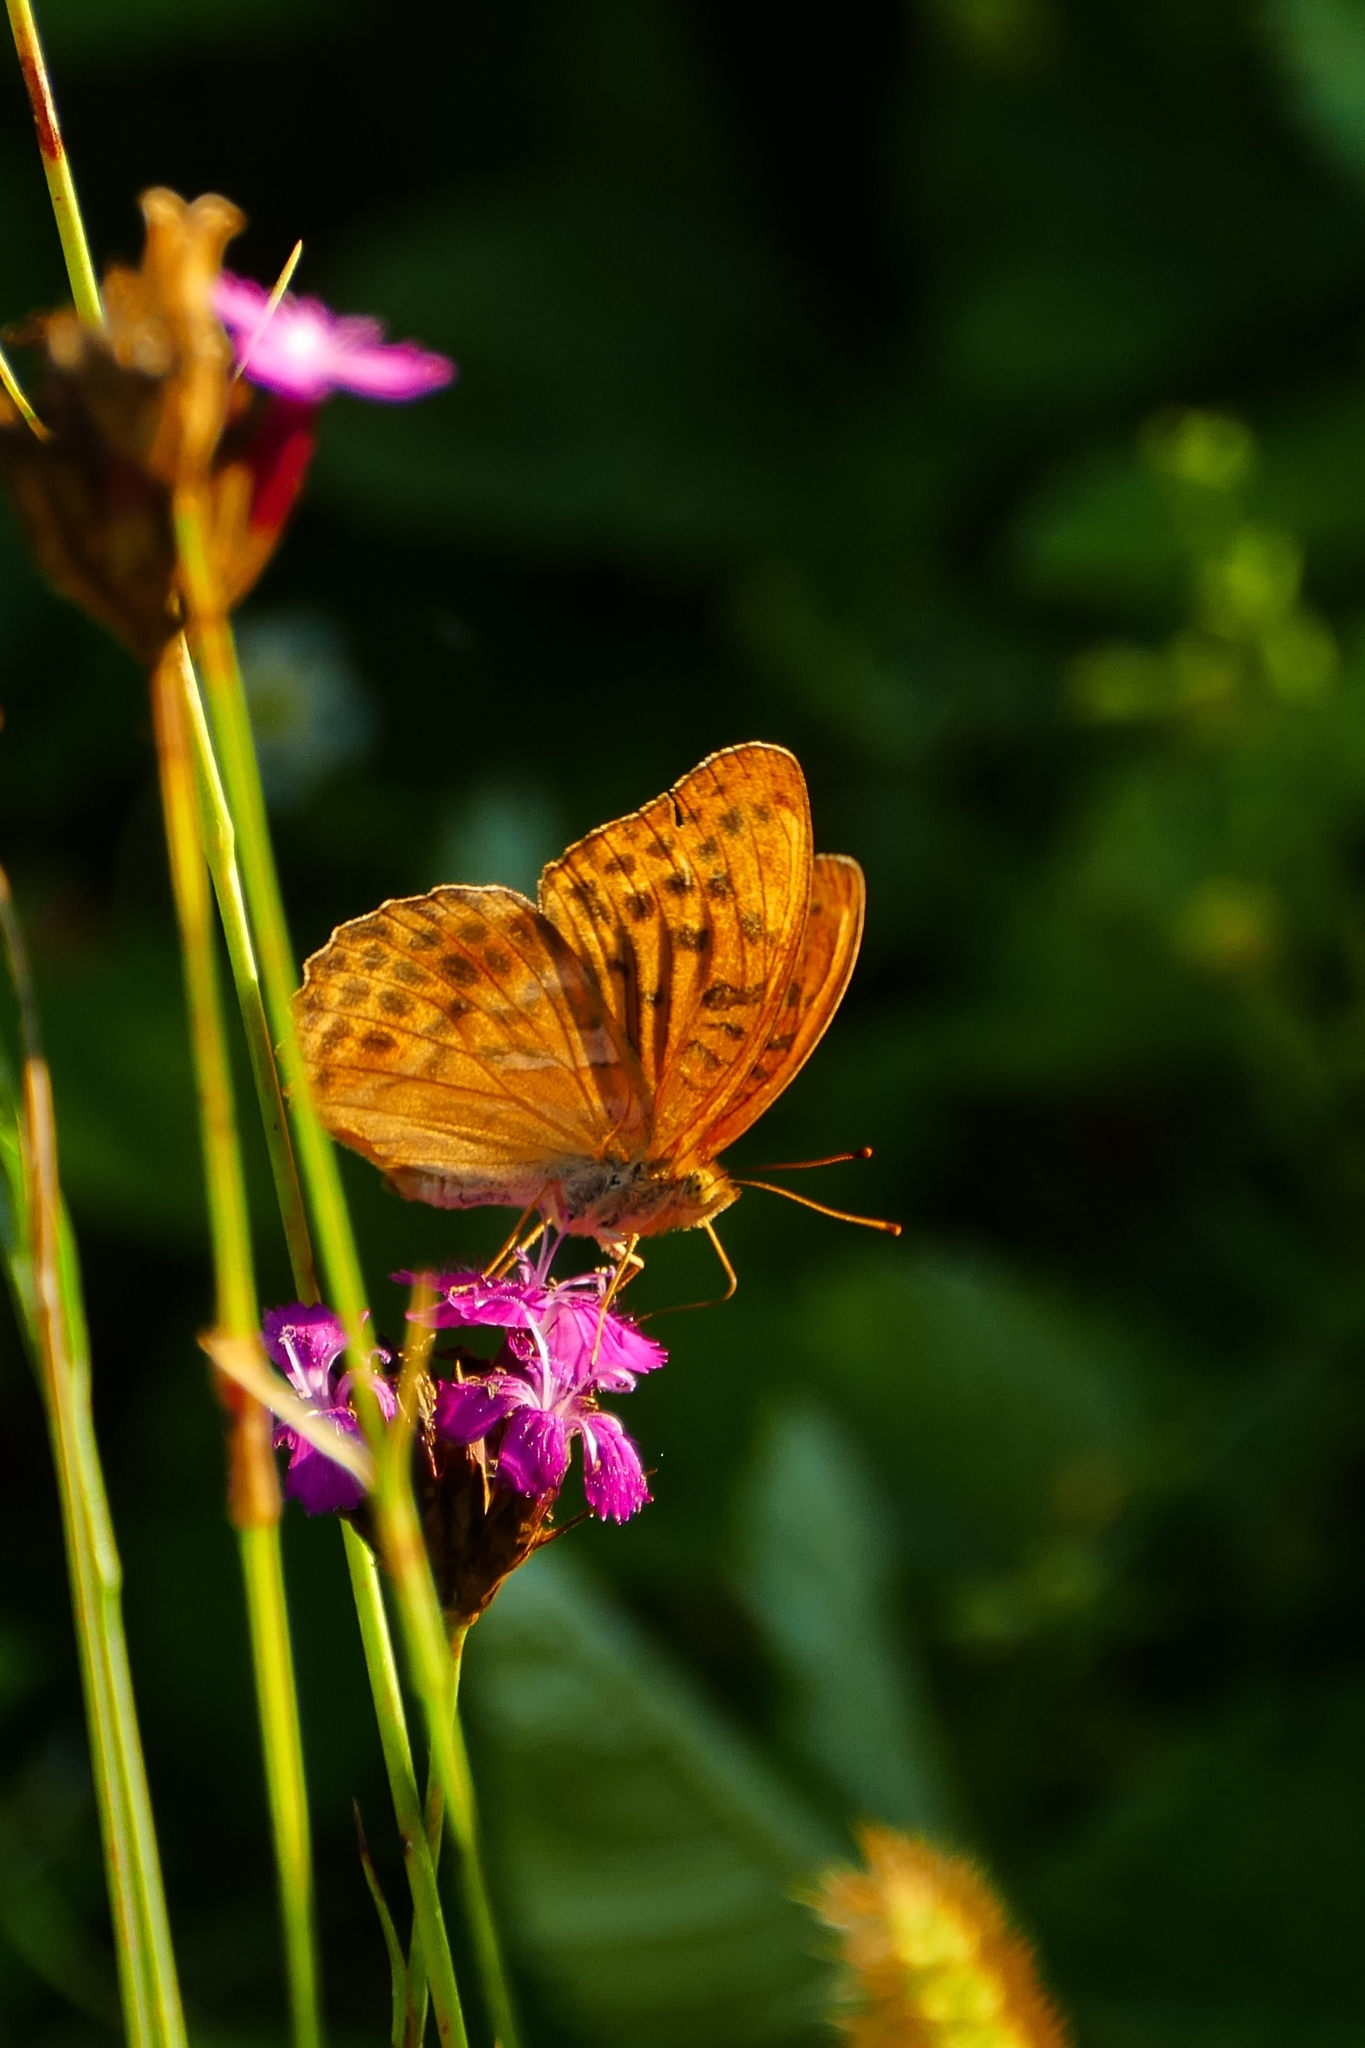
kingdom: Animalia
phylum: Arthropoda
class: Insecta
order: Lepidoptera
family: Nymphalidae
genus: Argynnis
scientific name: Argynnis paphia
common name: Silver-washed fritillary
